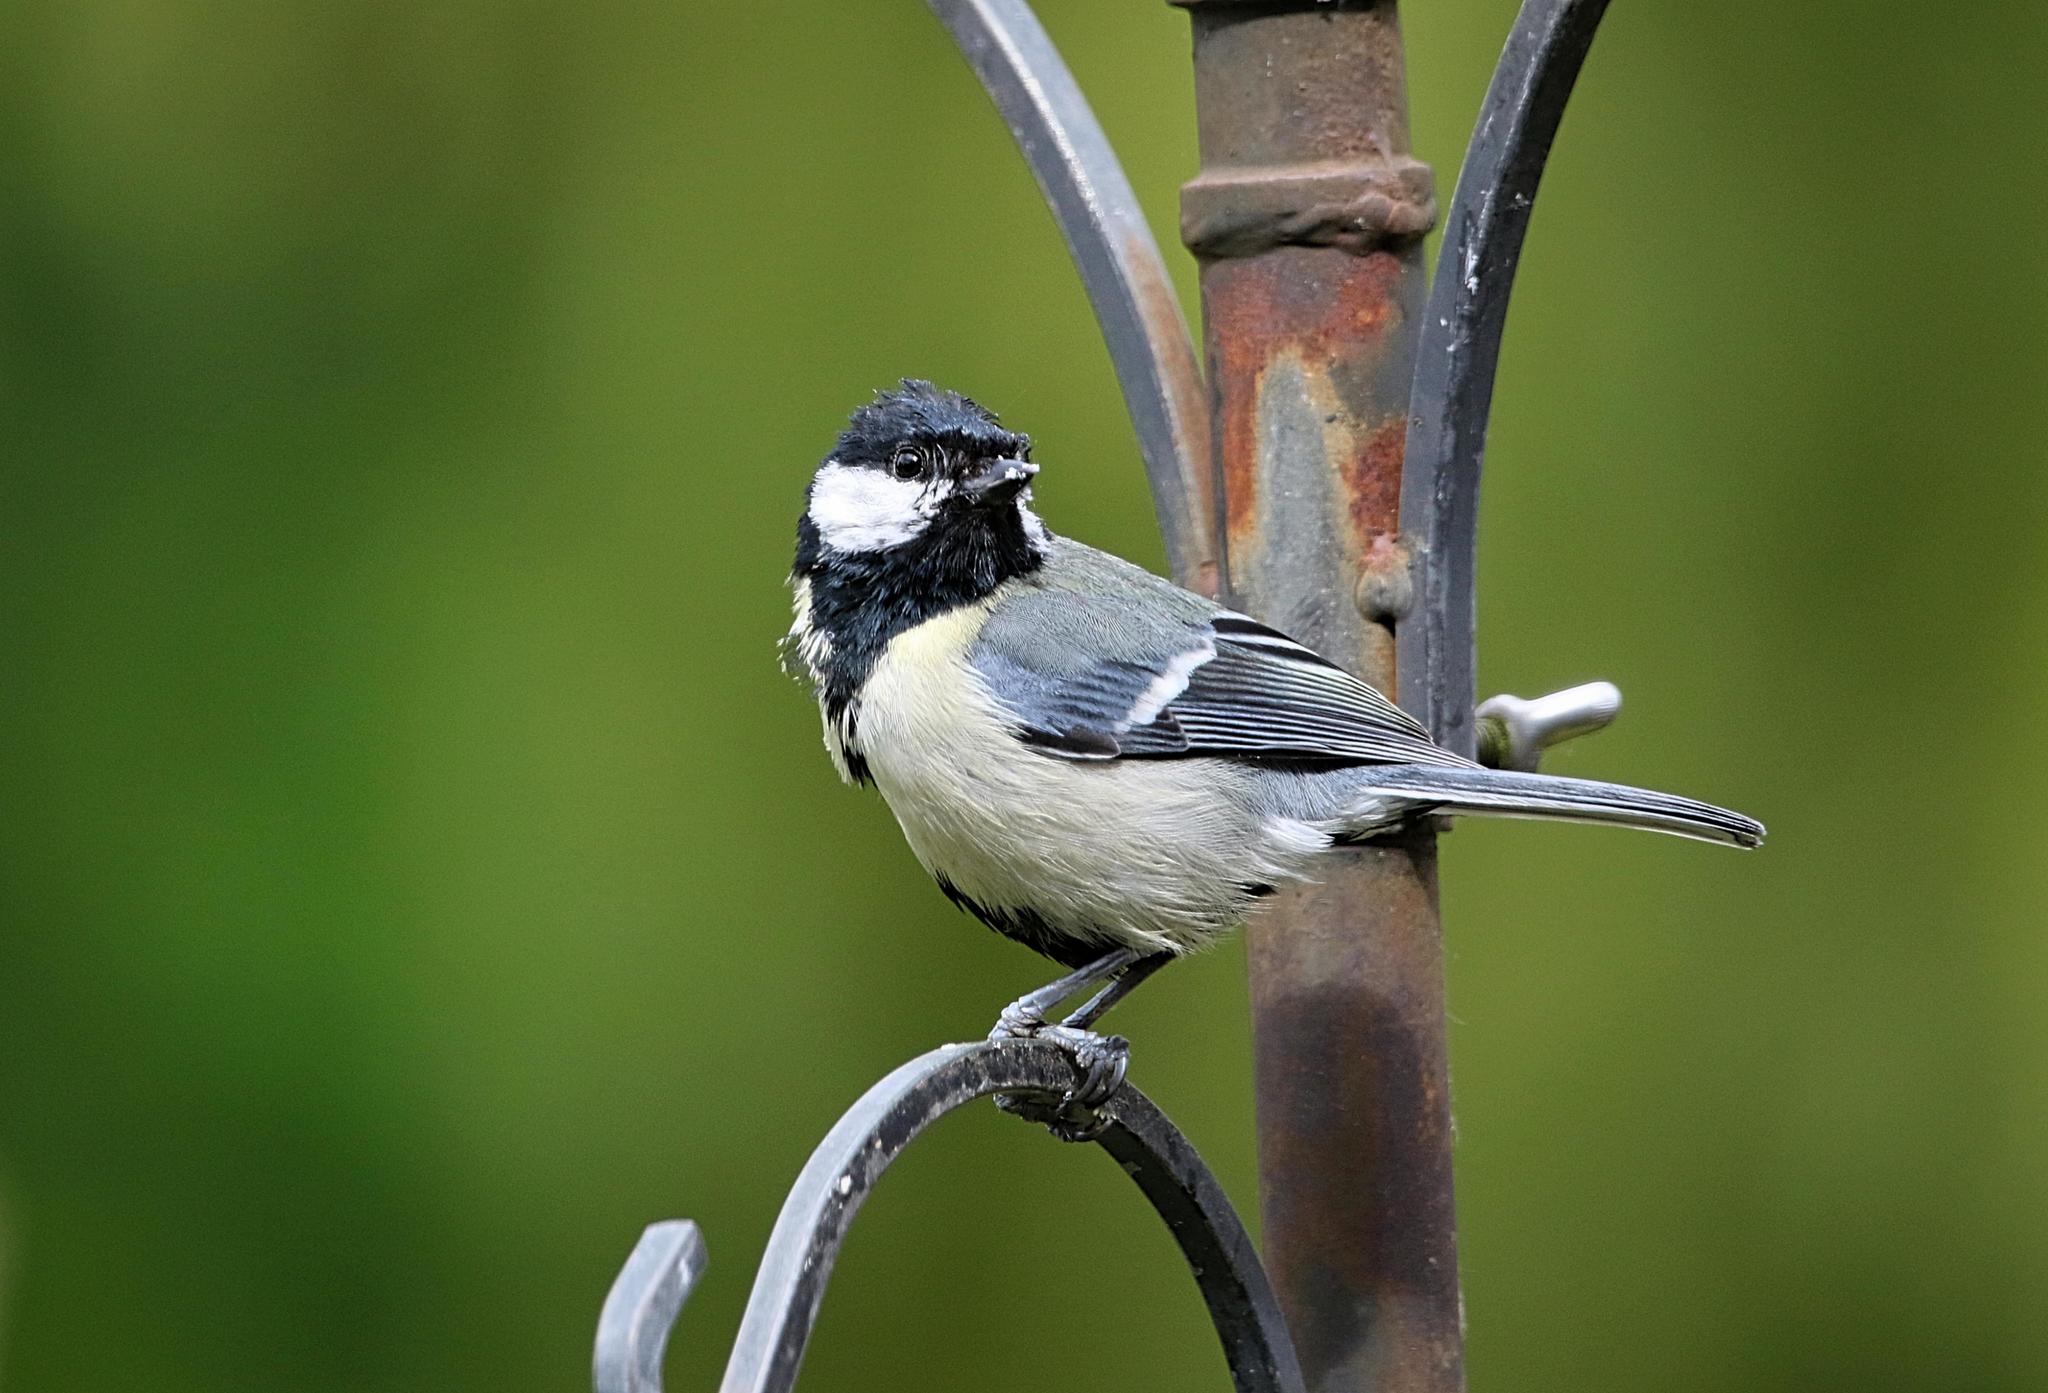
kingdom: Animalia
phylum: Chordata
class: Aves
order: Passeriformes
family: Paridae
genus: Parus
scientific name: Parus major
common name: Great tit
